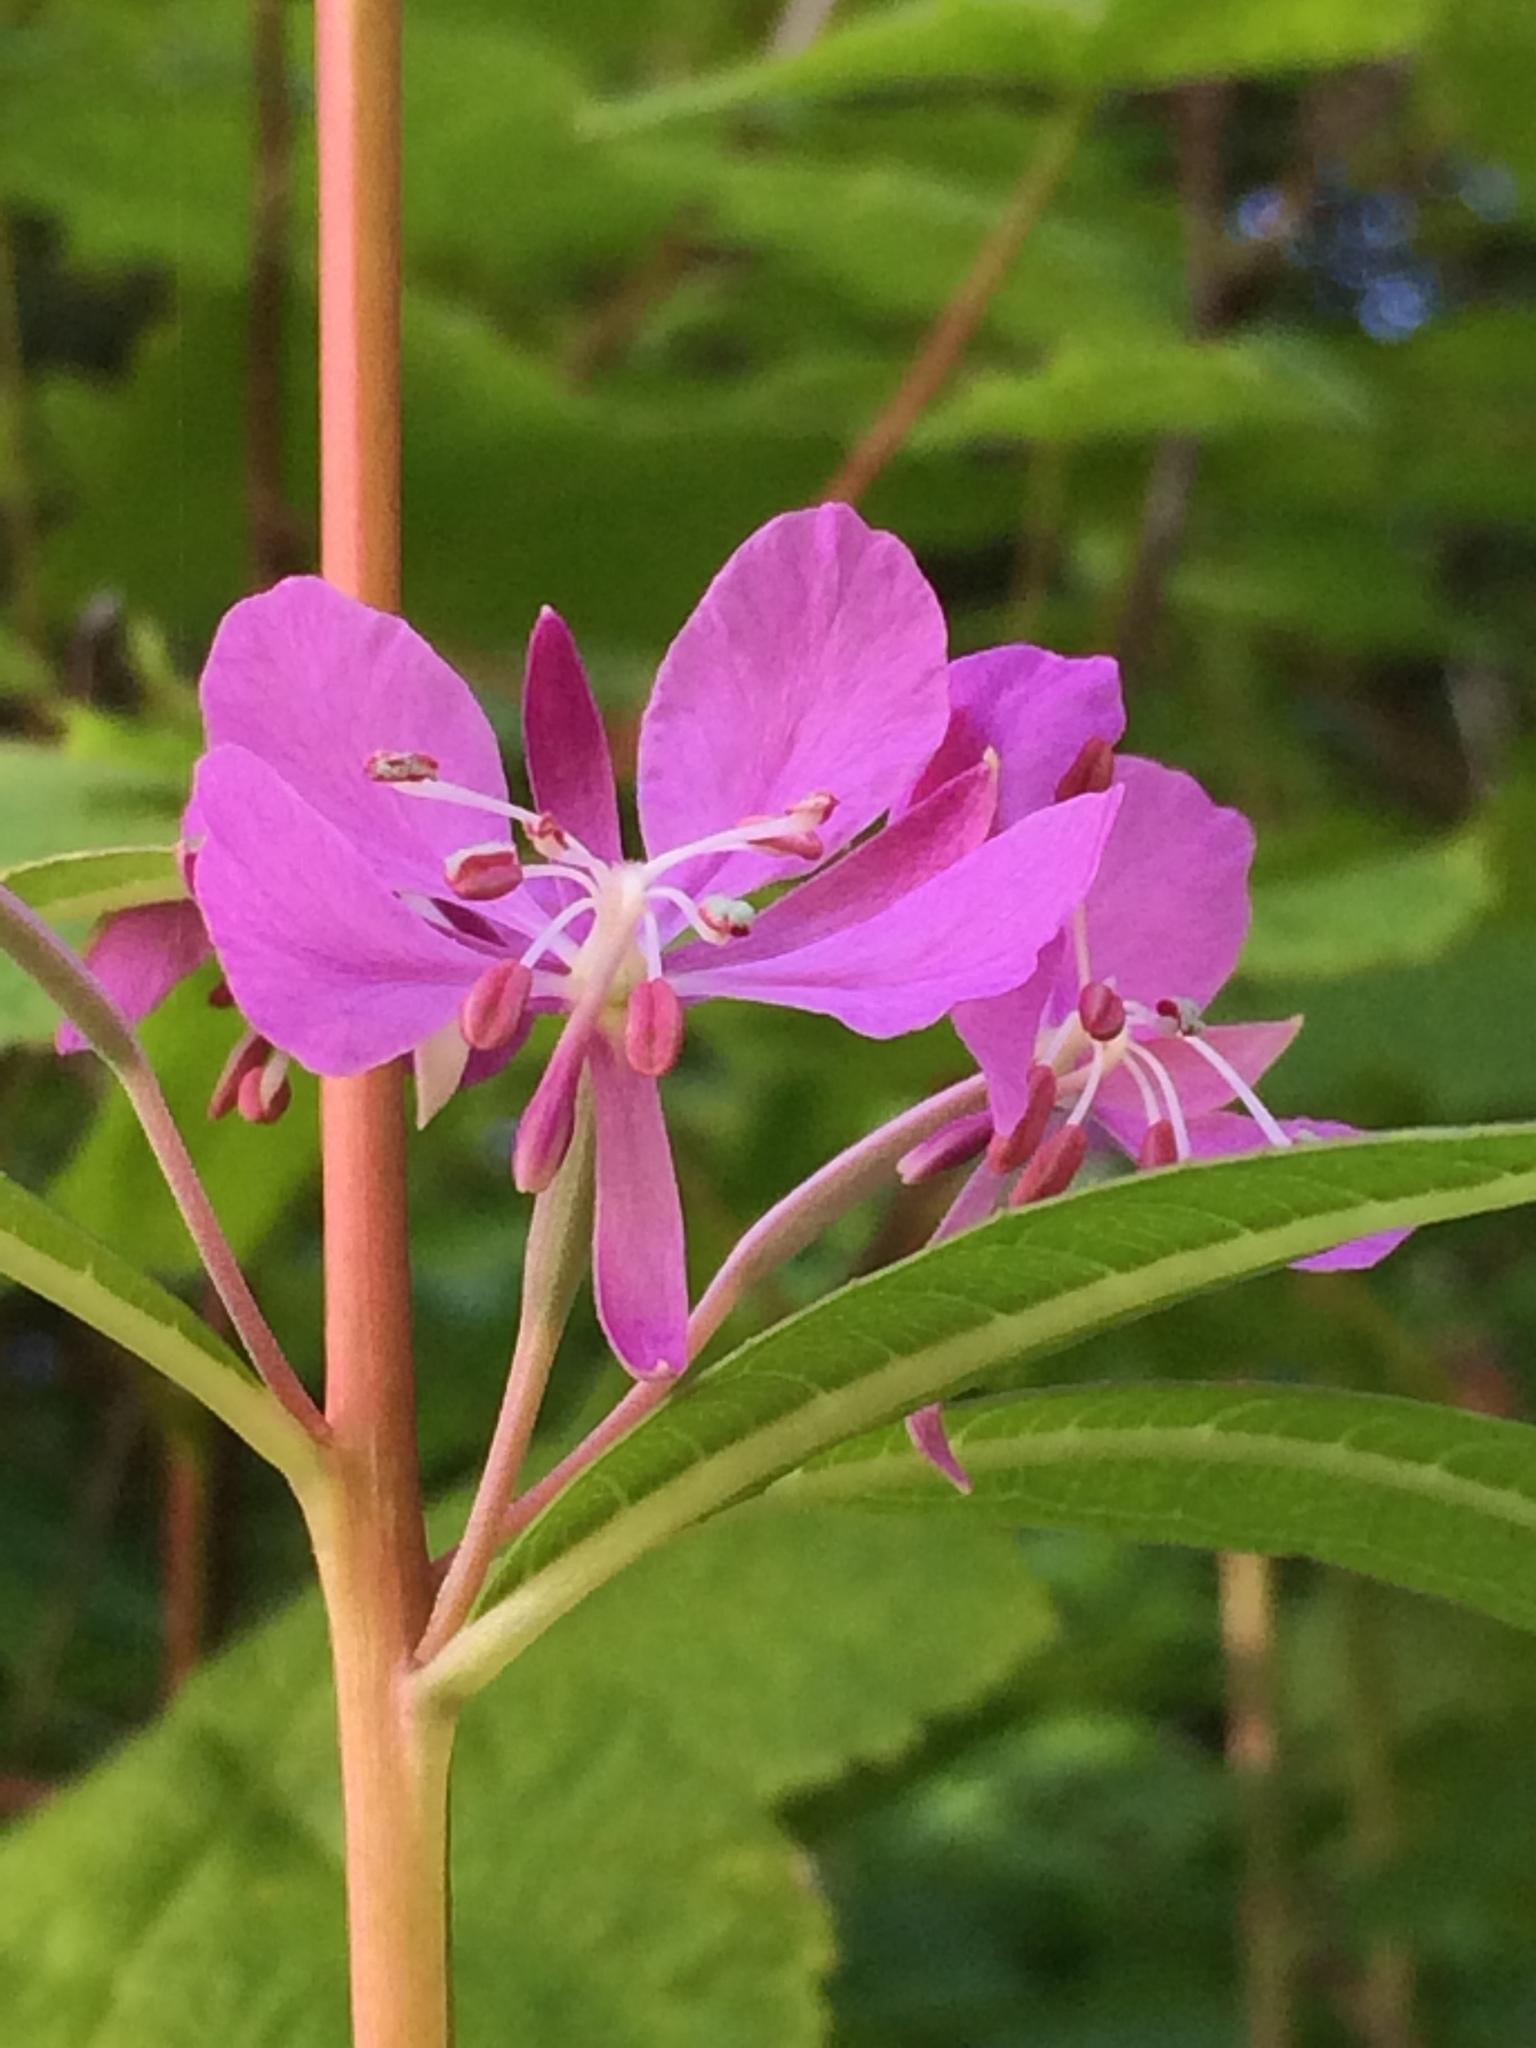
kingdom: Plantae
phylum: Tracheophyta
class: Magnoliopsida
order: Myrtales
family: Onagraceae
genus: Chamaenerion
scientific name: Chamaenerion angustifolium
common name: Fireweed
